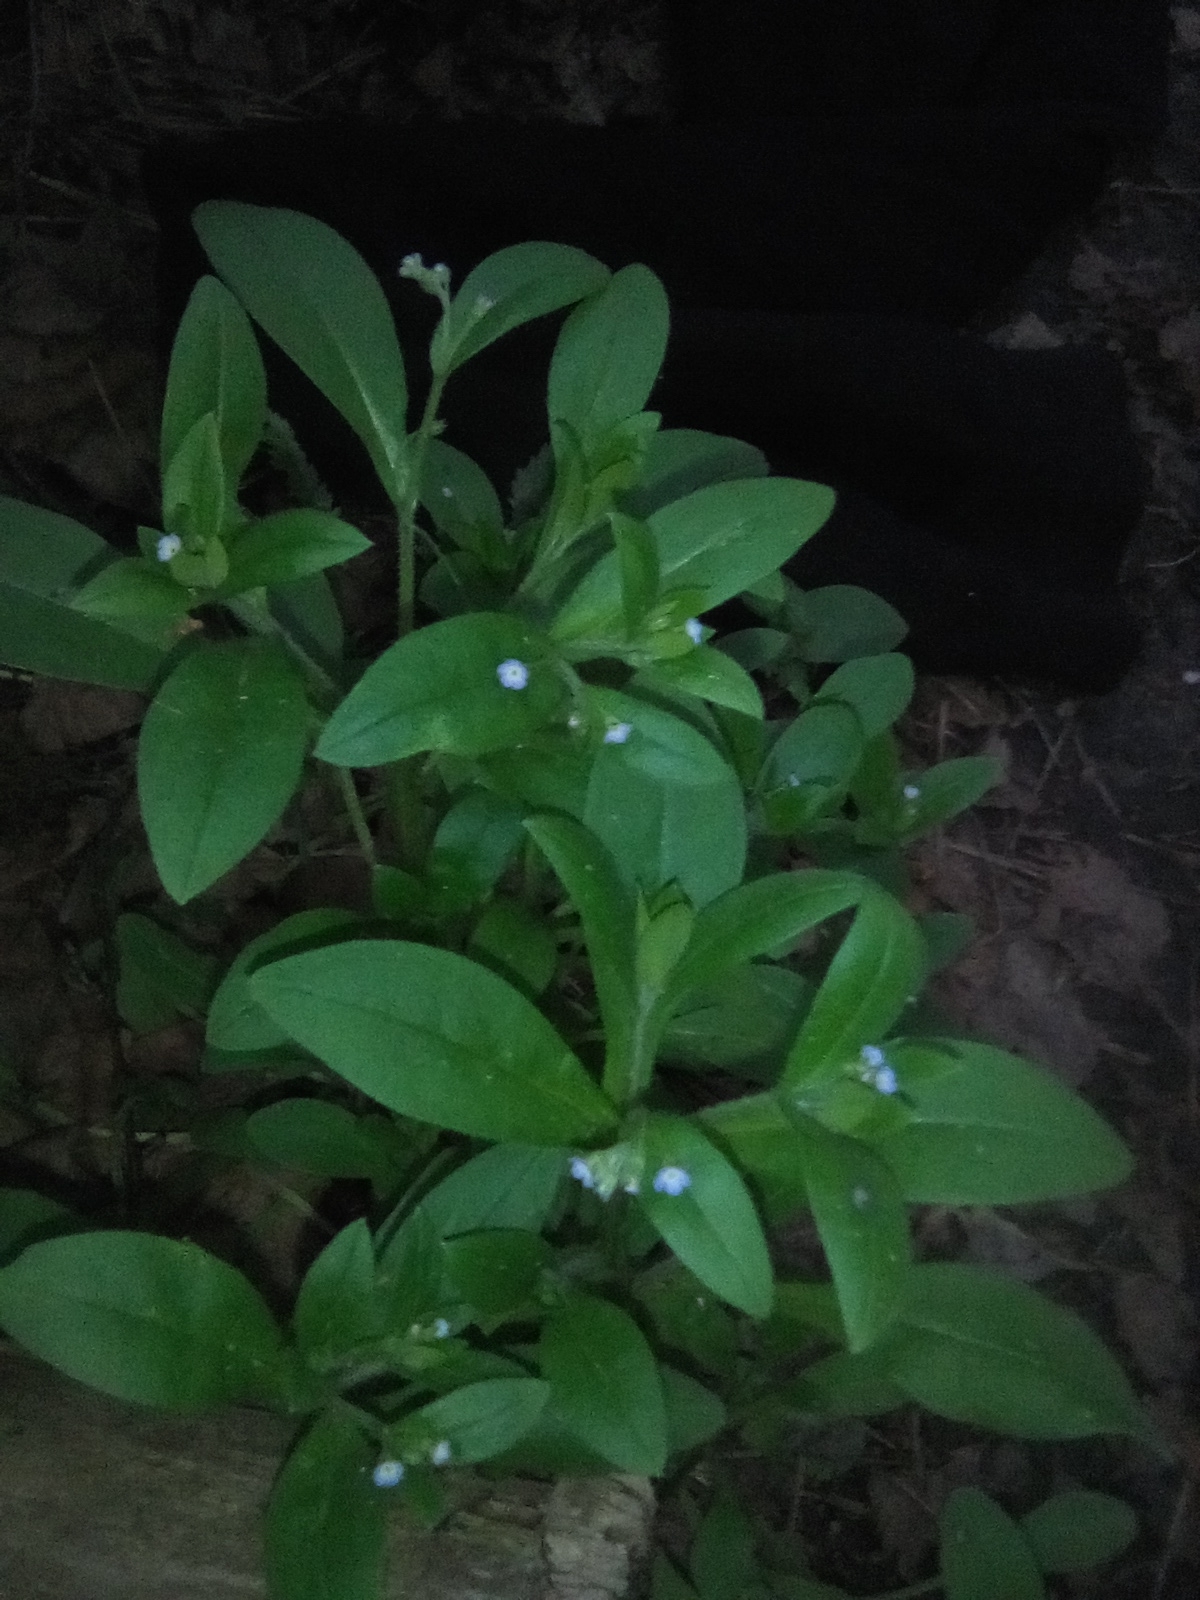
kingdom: Plantae
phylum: Tracheophyta
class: Magnoliopsida
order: Boraginales
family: Boraginaceae
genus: Myosotis
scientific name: Myosotis sparsiflora
